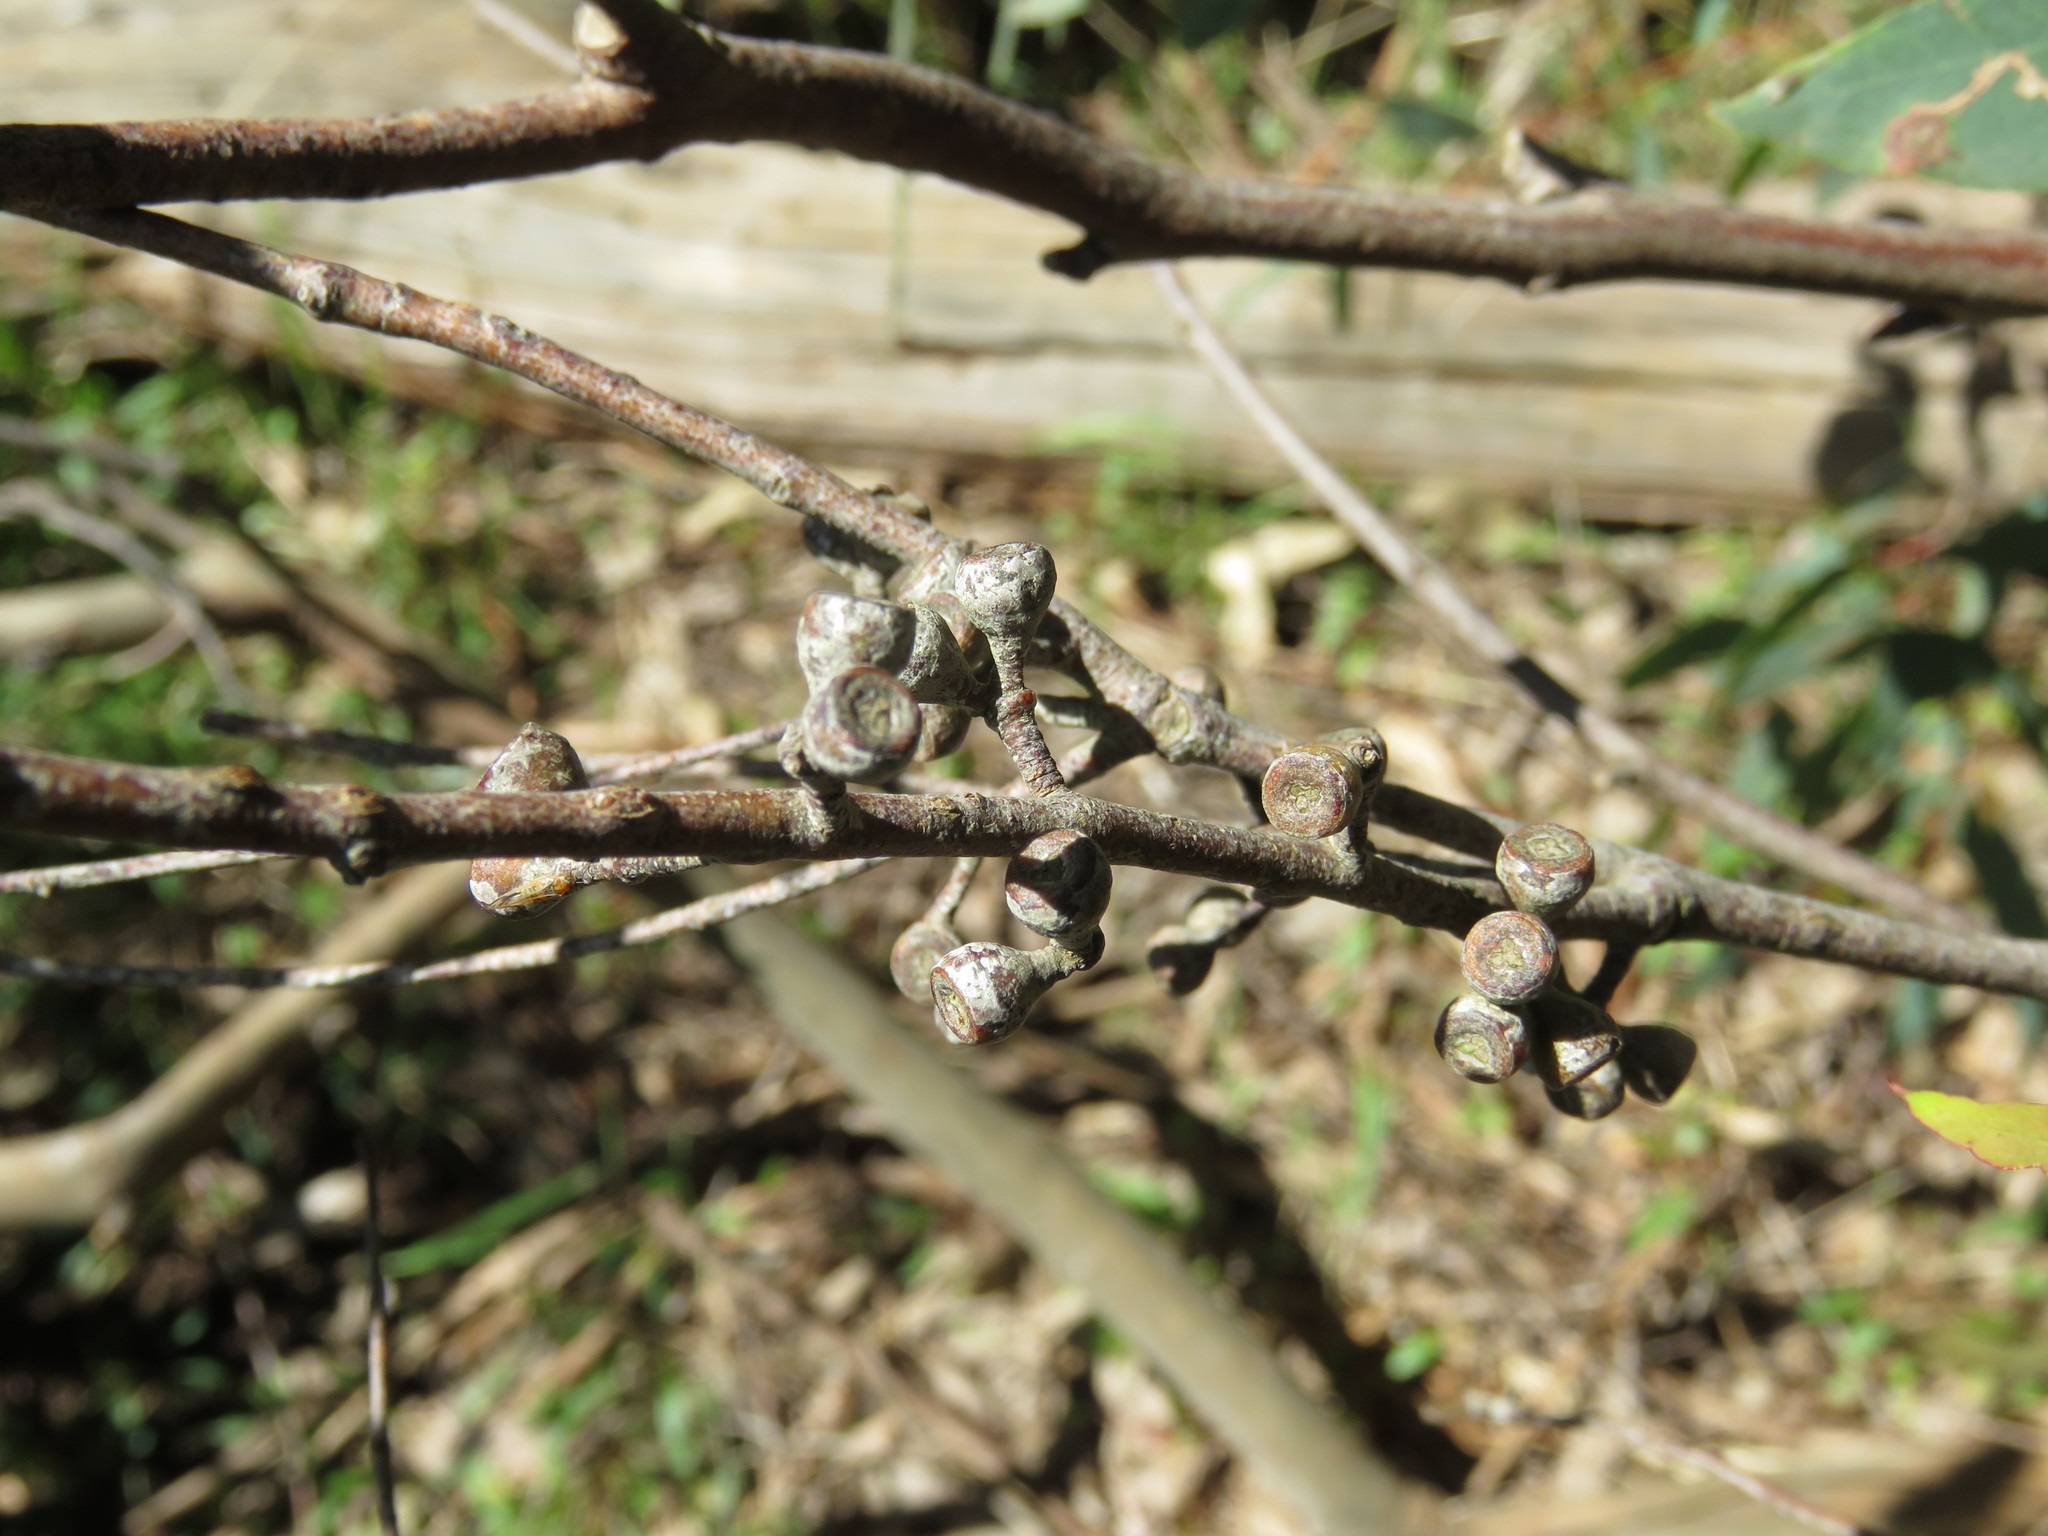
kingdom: Plantae
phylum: Tracheophyta
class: Magnoliopsida
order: Myrtales
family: Myrtaceae
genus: Eucalyptus
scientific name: Eucalyptus radiata
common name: Narrow-leaved-peppermint
